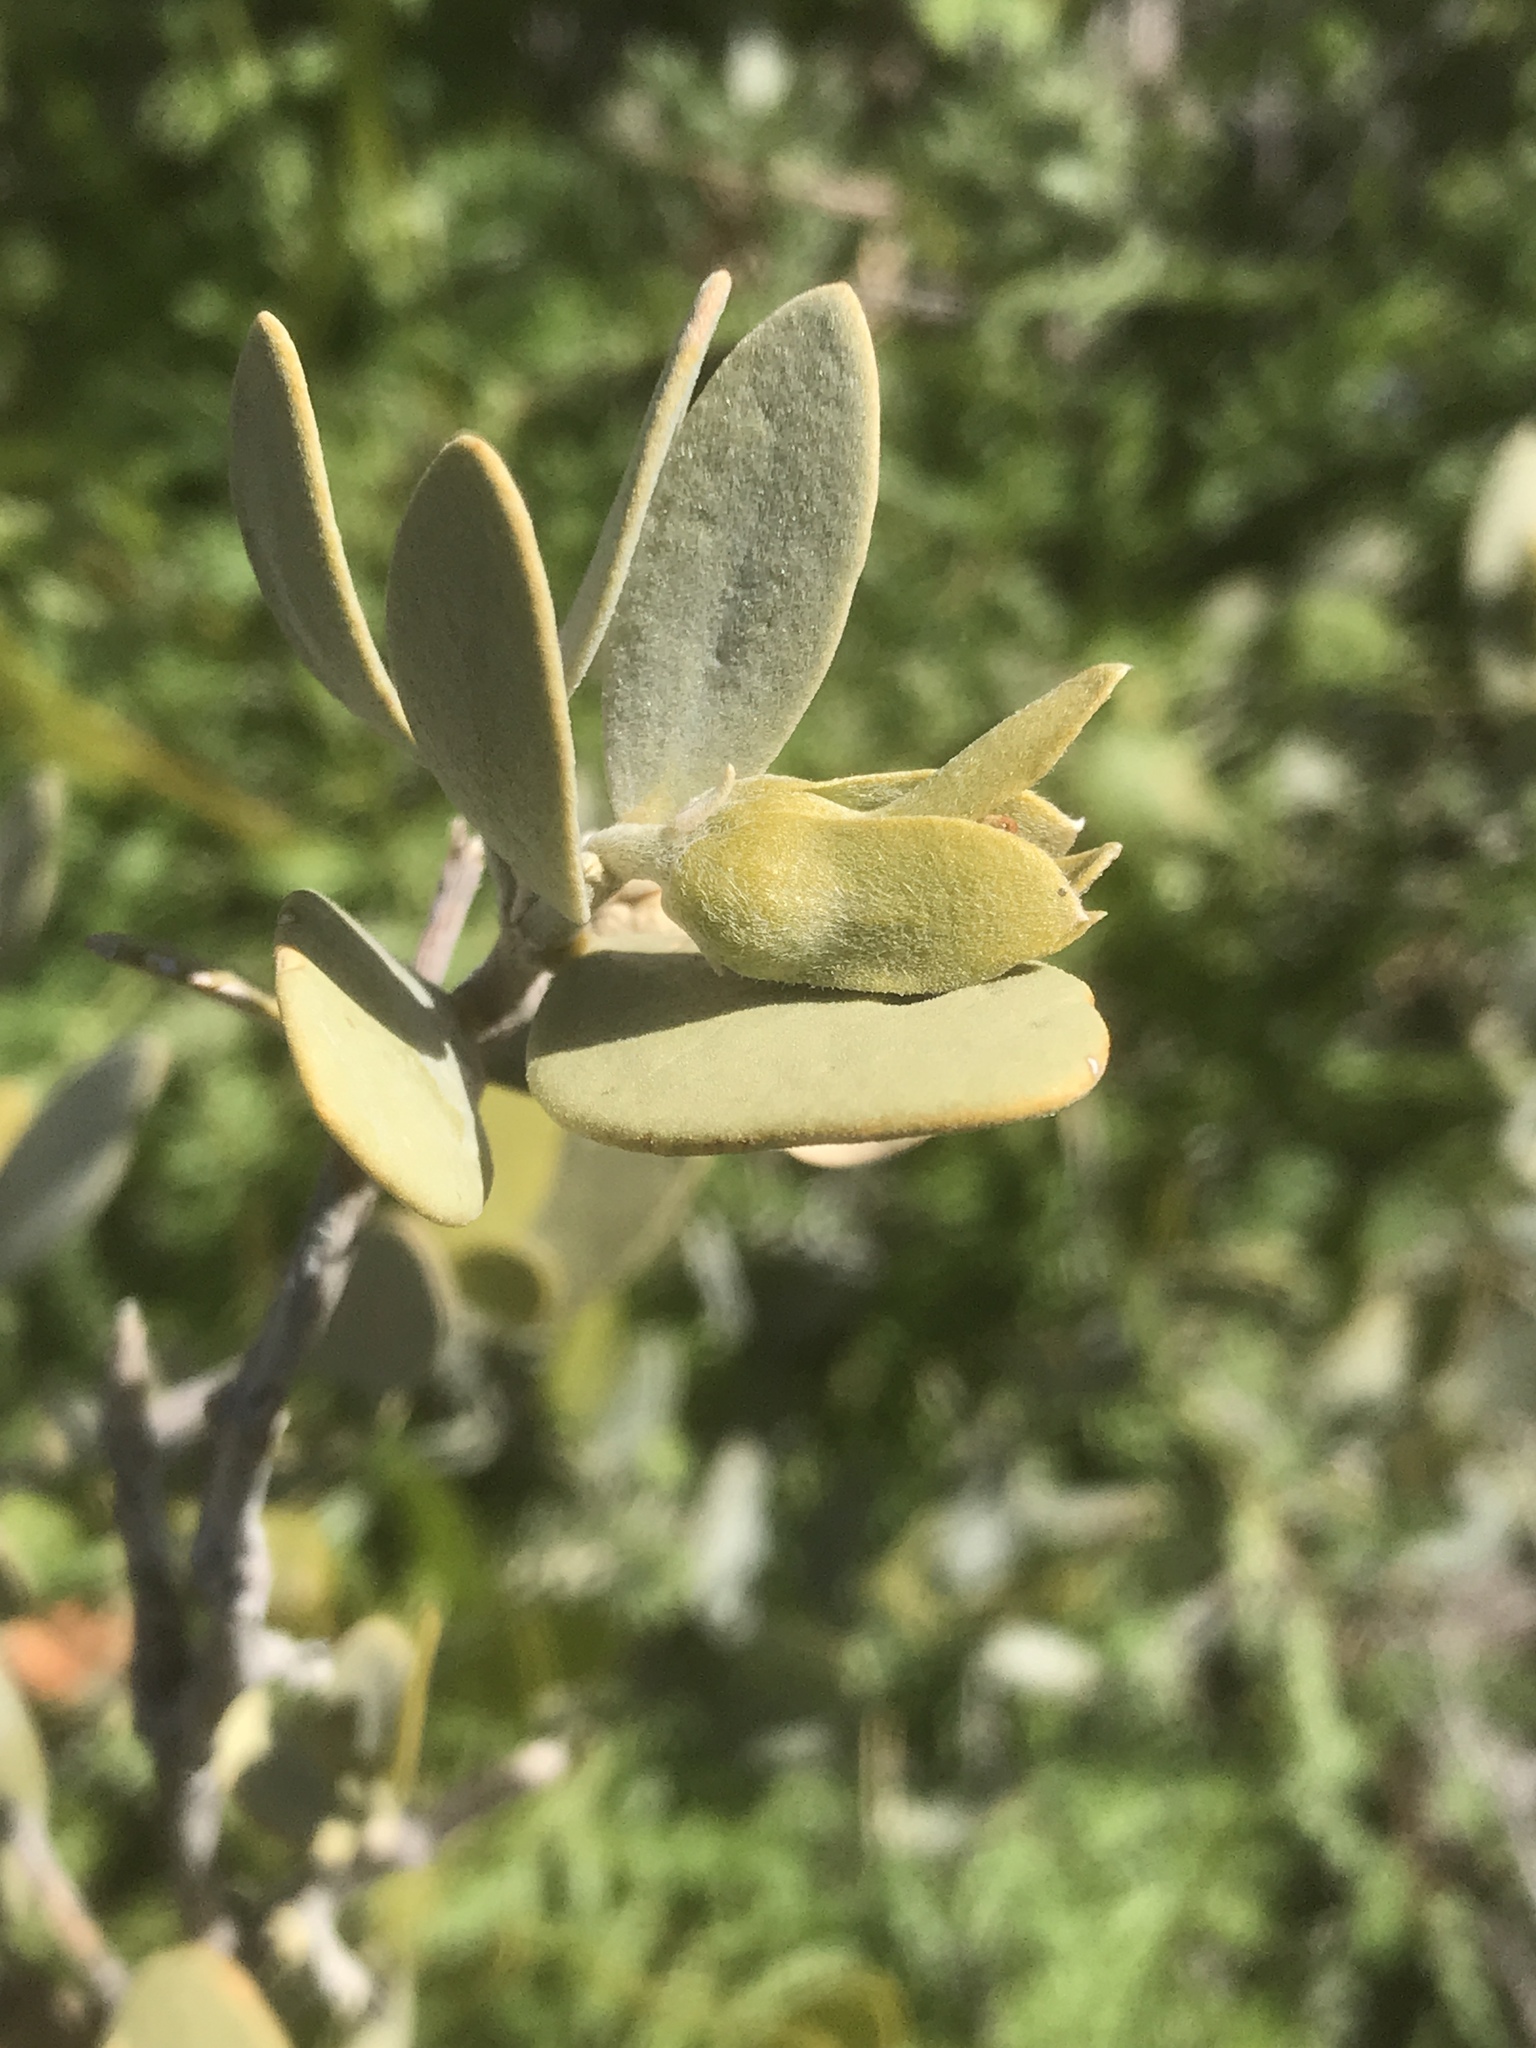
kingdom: Plantae
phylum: Tracheophyta
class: Magnoliopsida
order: Caryophyllales
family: Simmondsiaceae
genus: Simmondsia
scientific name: Simmondsia chinensis
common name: Jojoba
